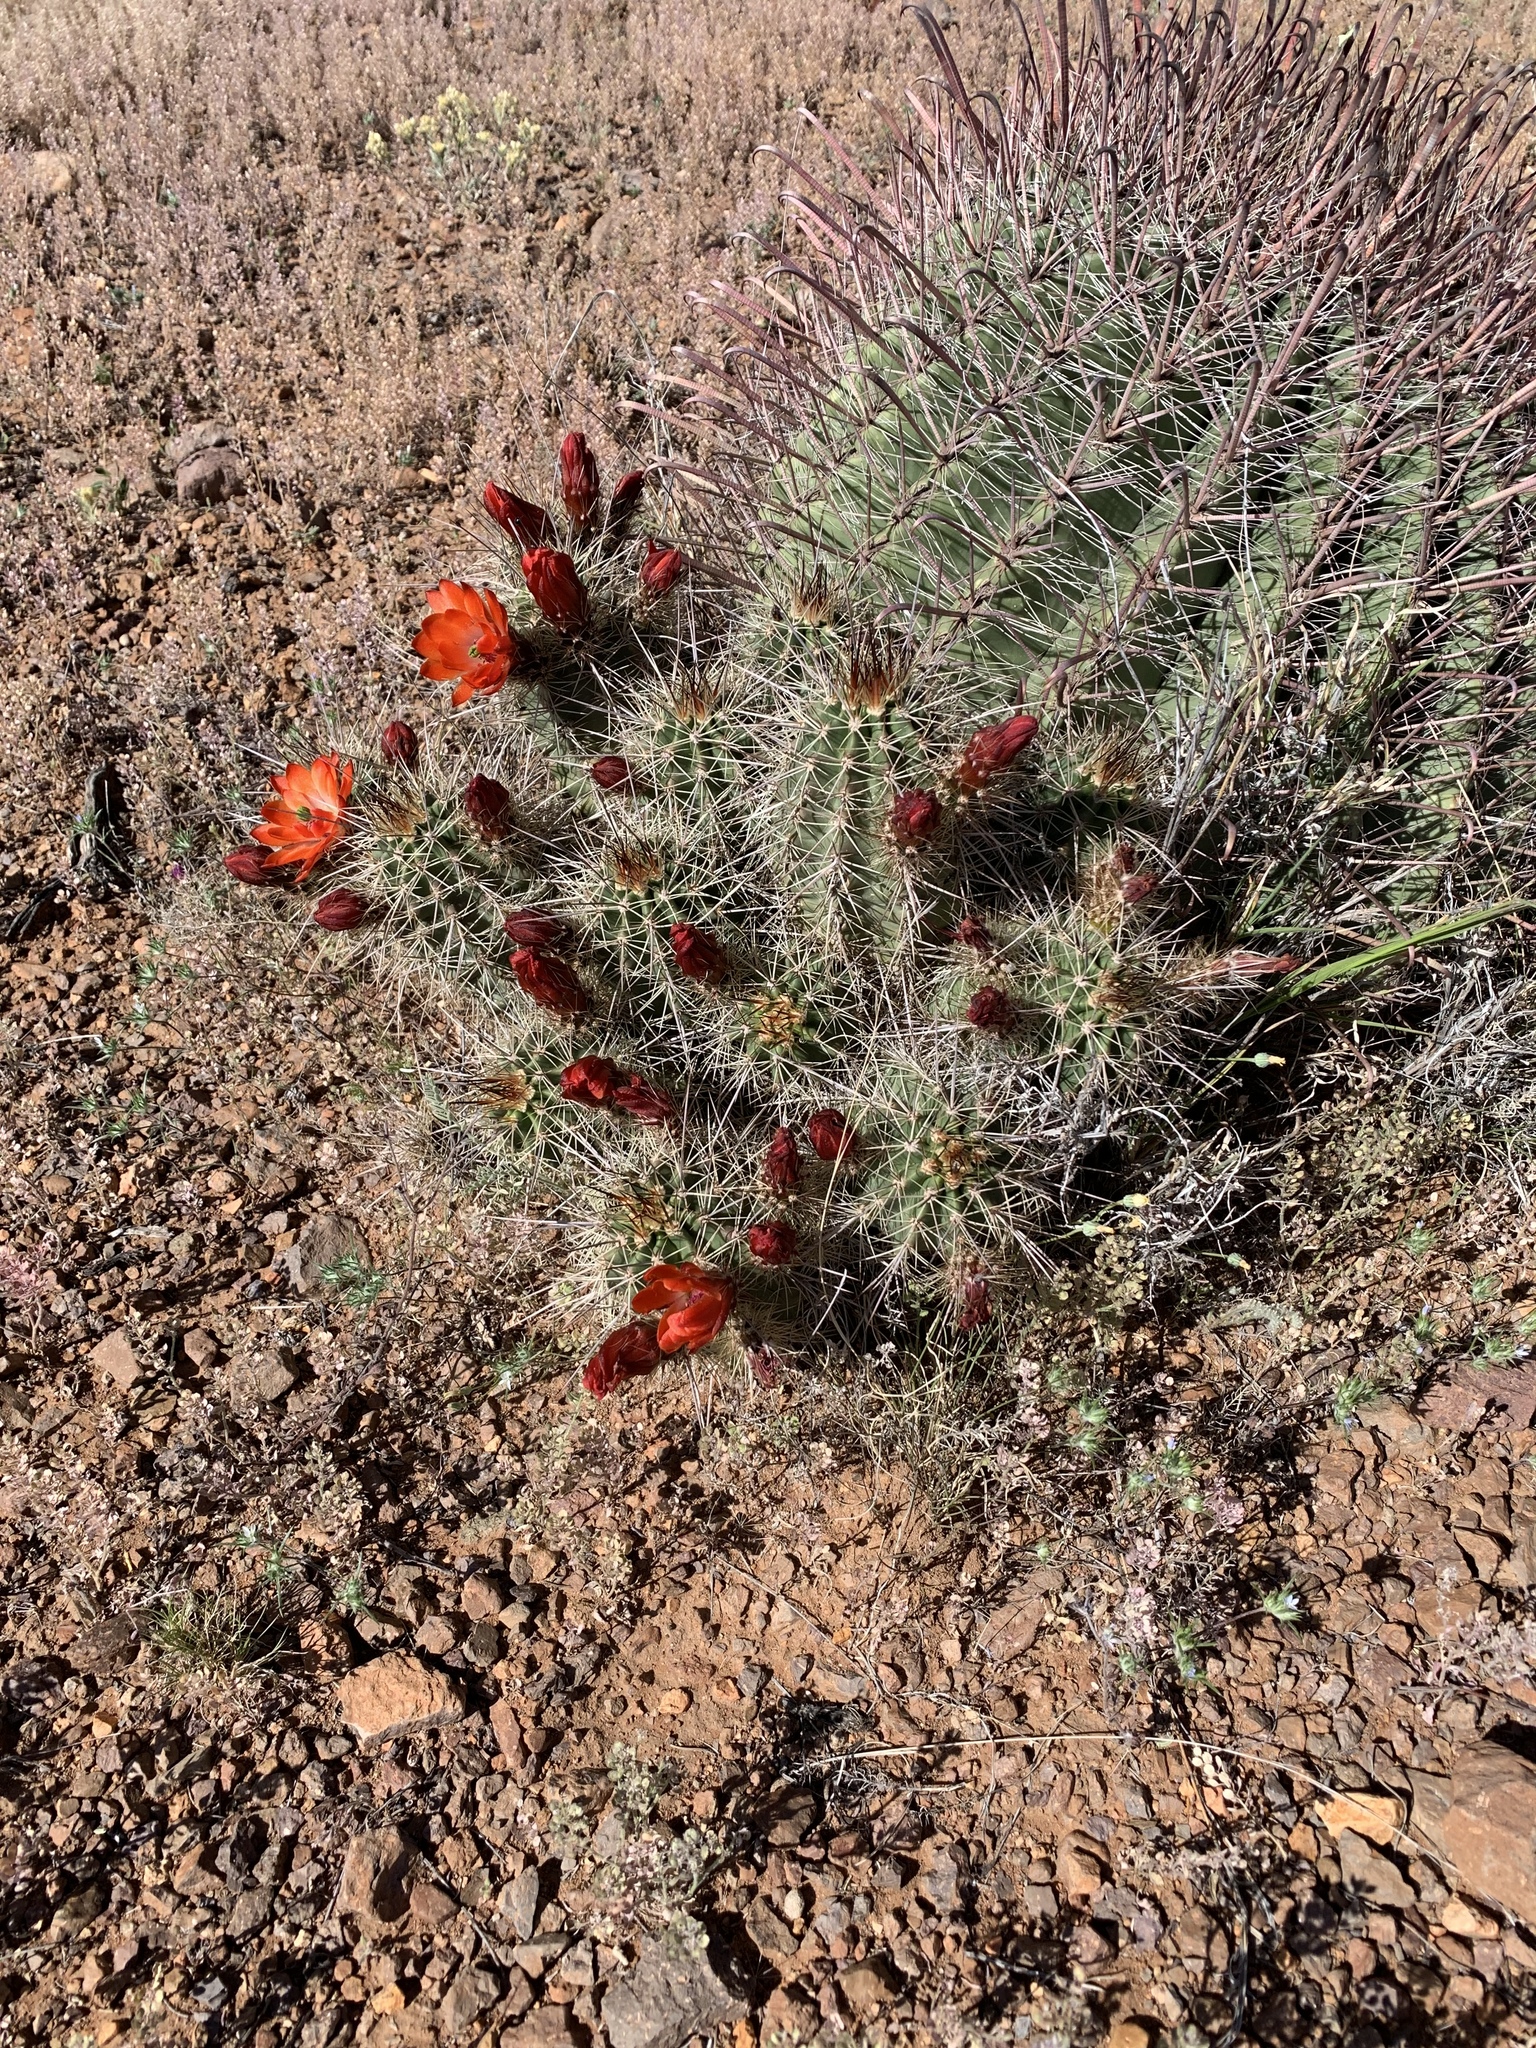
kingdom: Plantae
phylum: Tracheophyta
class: Magnoliopsida
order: Caryophyllales
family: Cactaceae
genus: Echinocereus
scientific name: Echinocereus coccineus
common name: Scarlet hedgehog cactus
